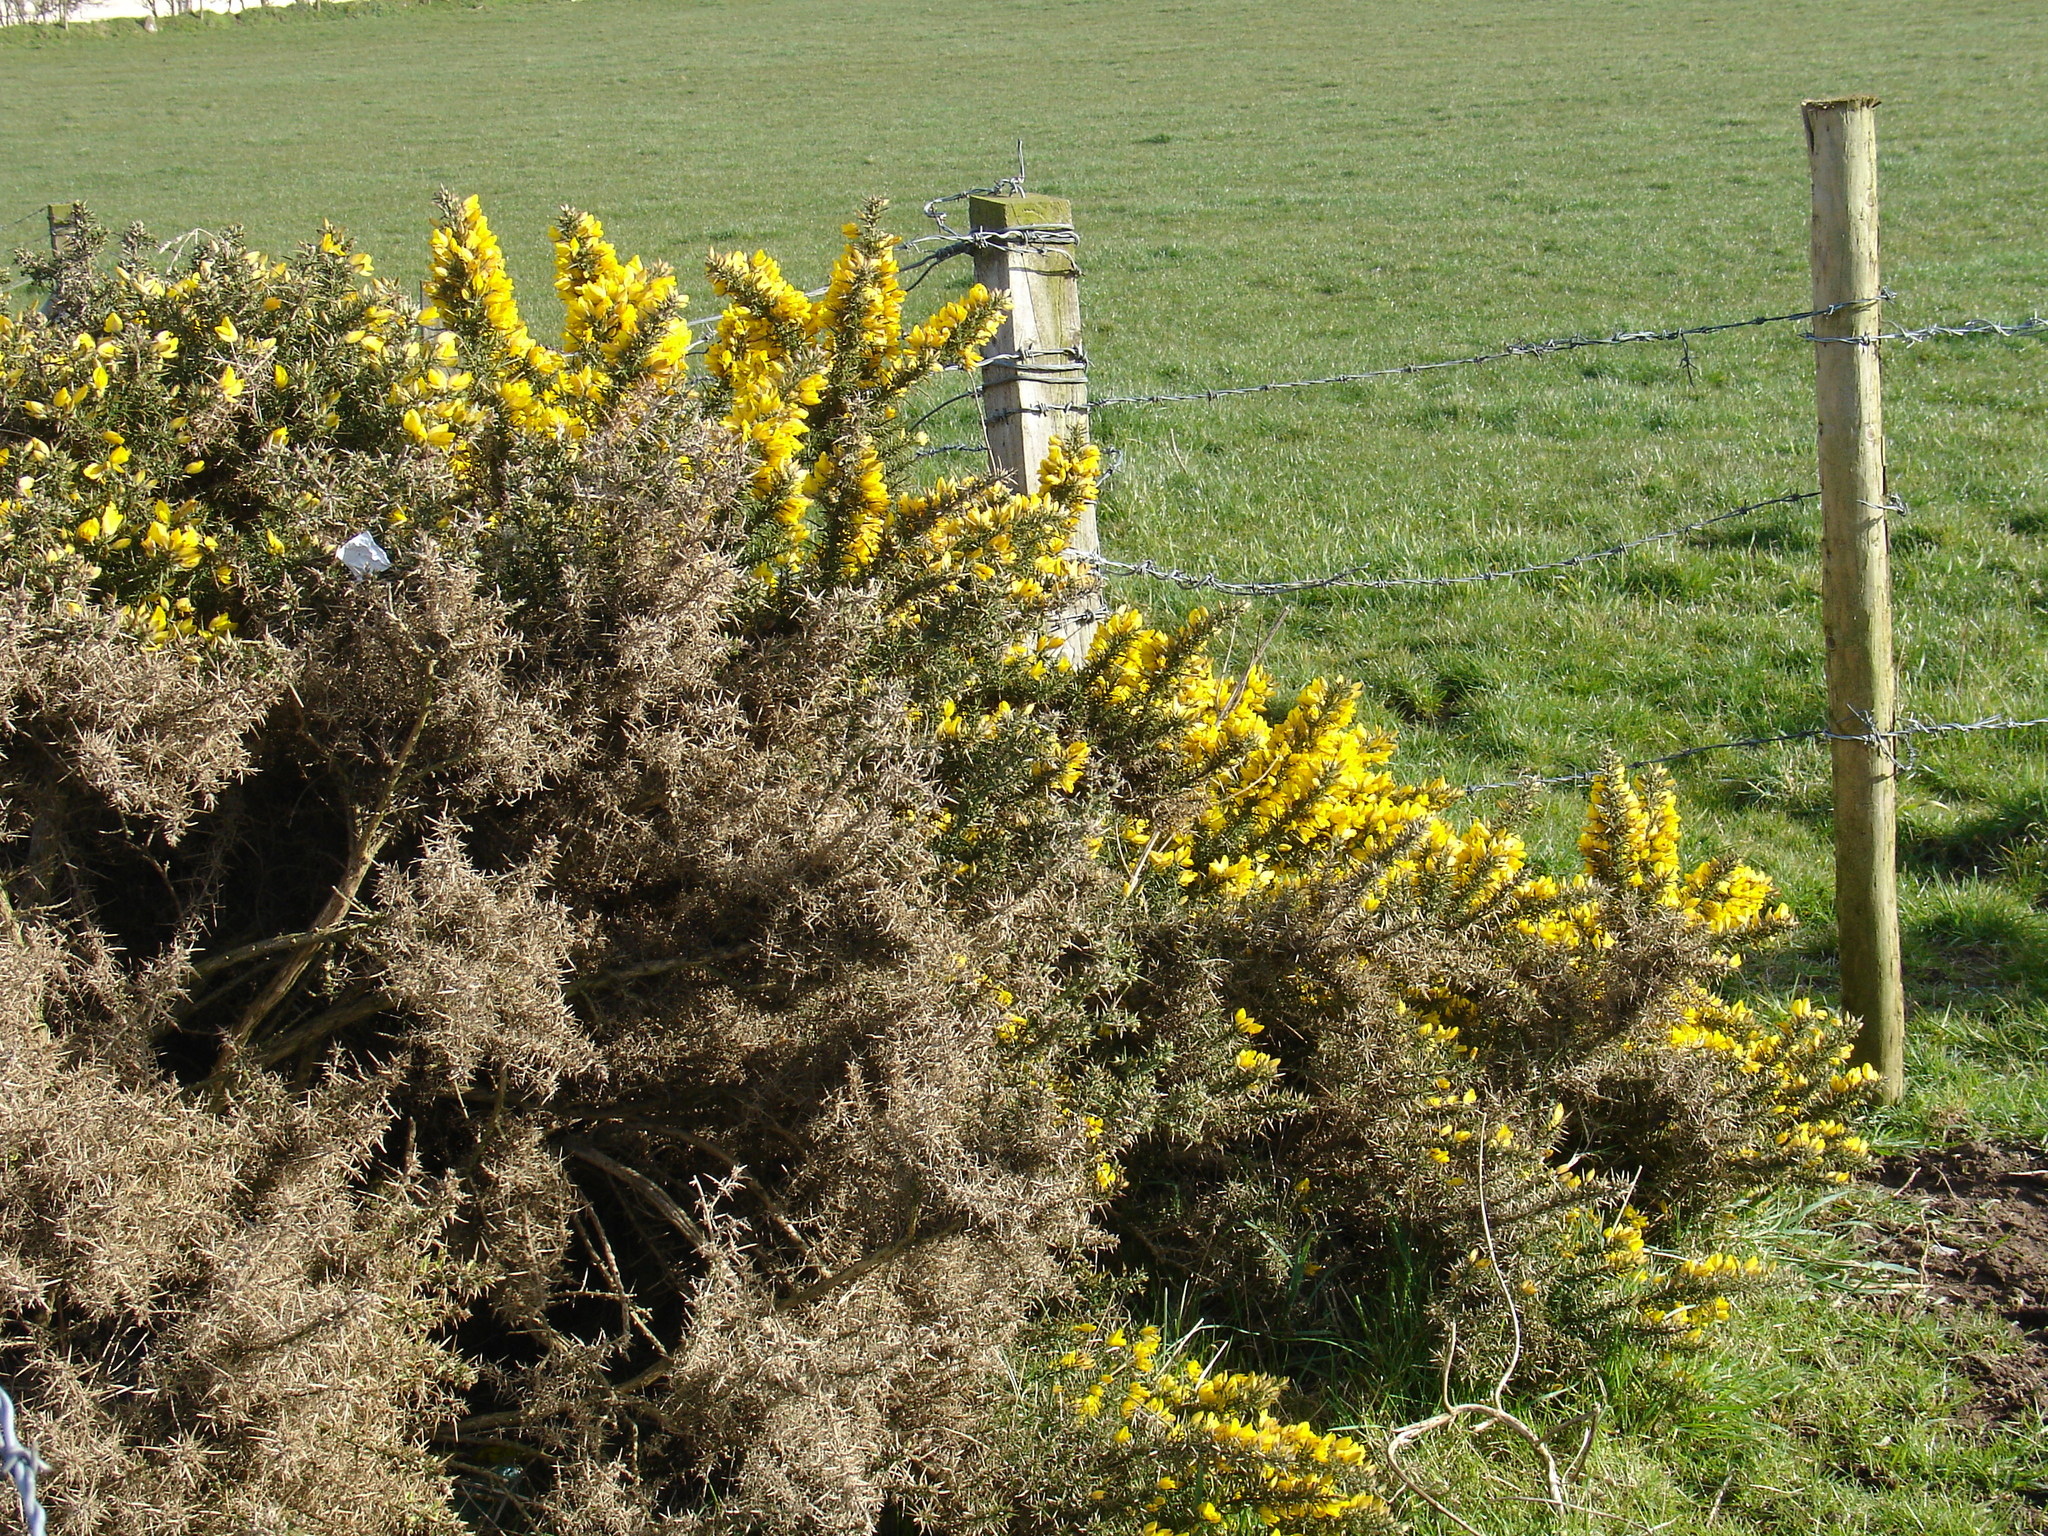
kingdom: Plantae
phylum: Tracheophyta
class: Magnoliopsida
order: Fabales
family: Fabaceae
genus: Ulex
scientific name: Ulex europaeus
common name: Common gorse
